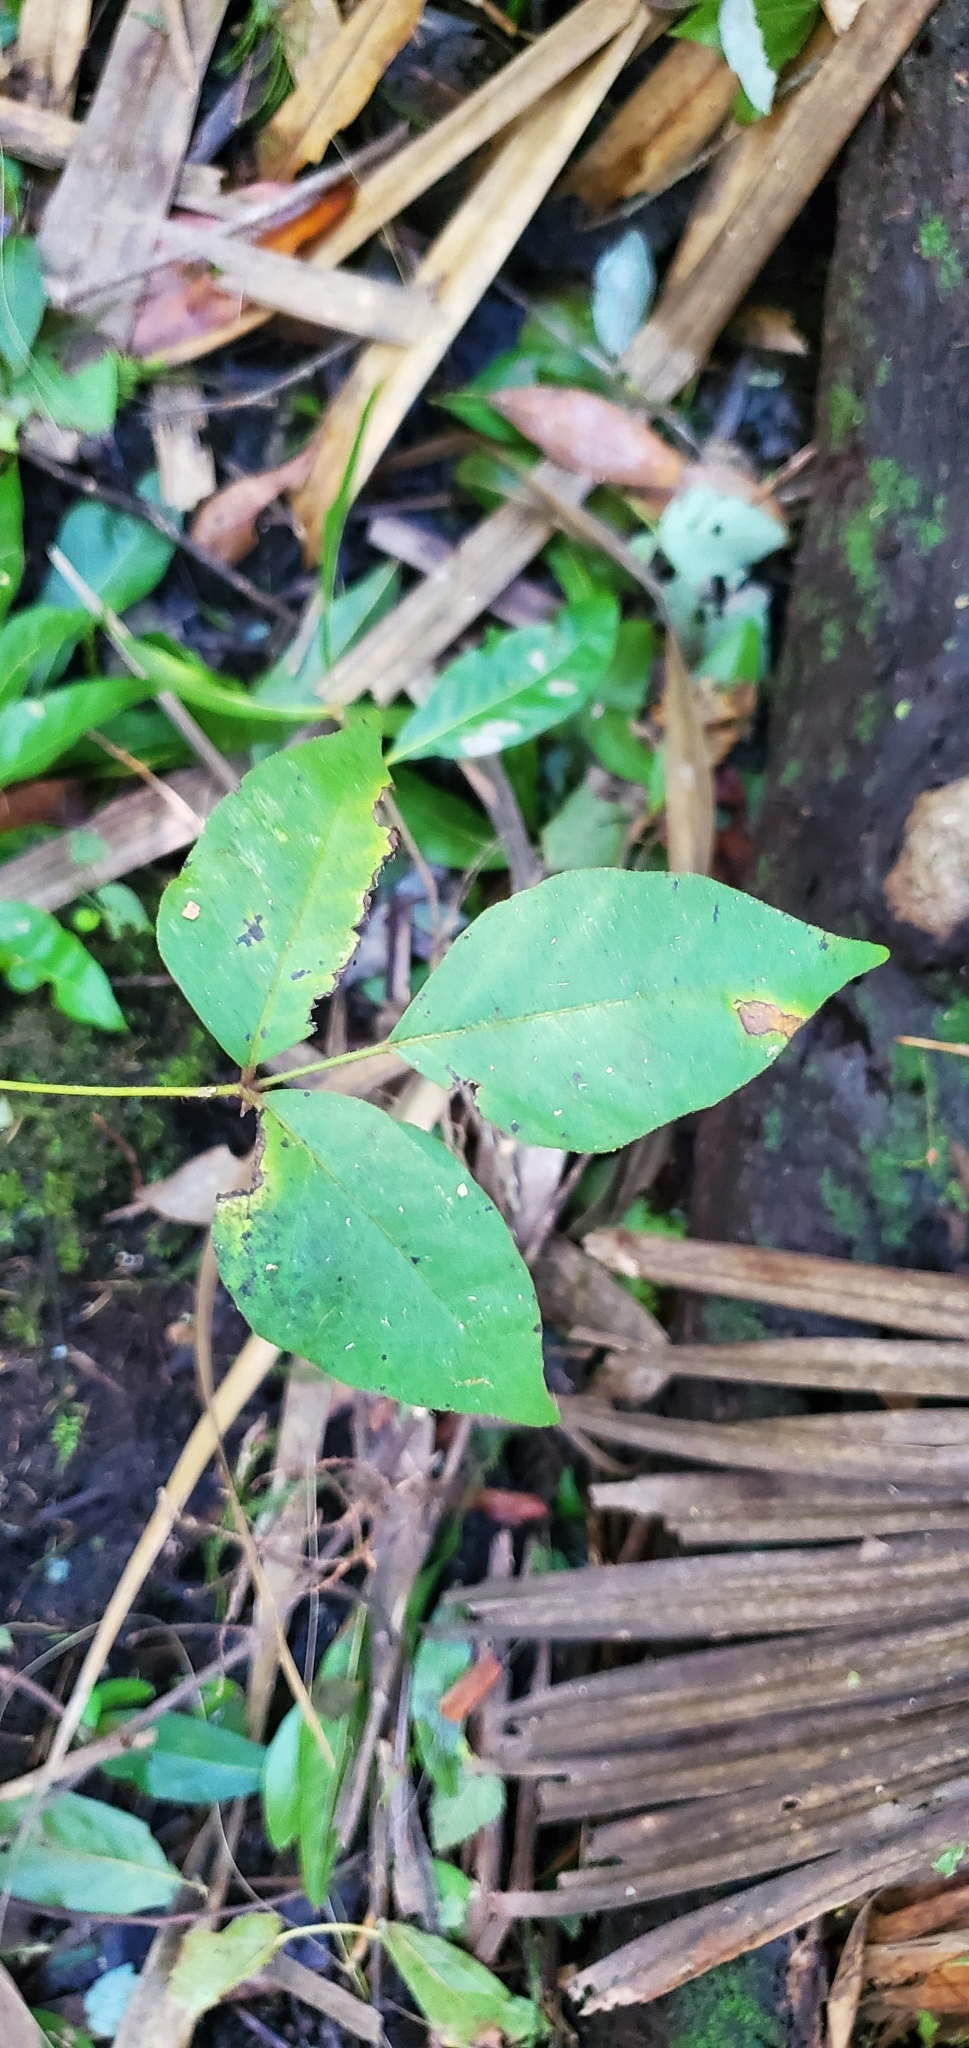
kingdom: Plantae
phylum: Tracheophyta
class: Magnoliopsida
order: Sapindales
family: Anacardiaceae
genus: Toxicodendron
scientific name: Toxicodendron radicans
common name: Poison ivy
